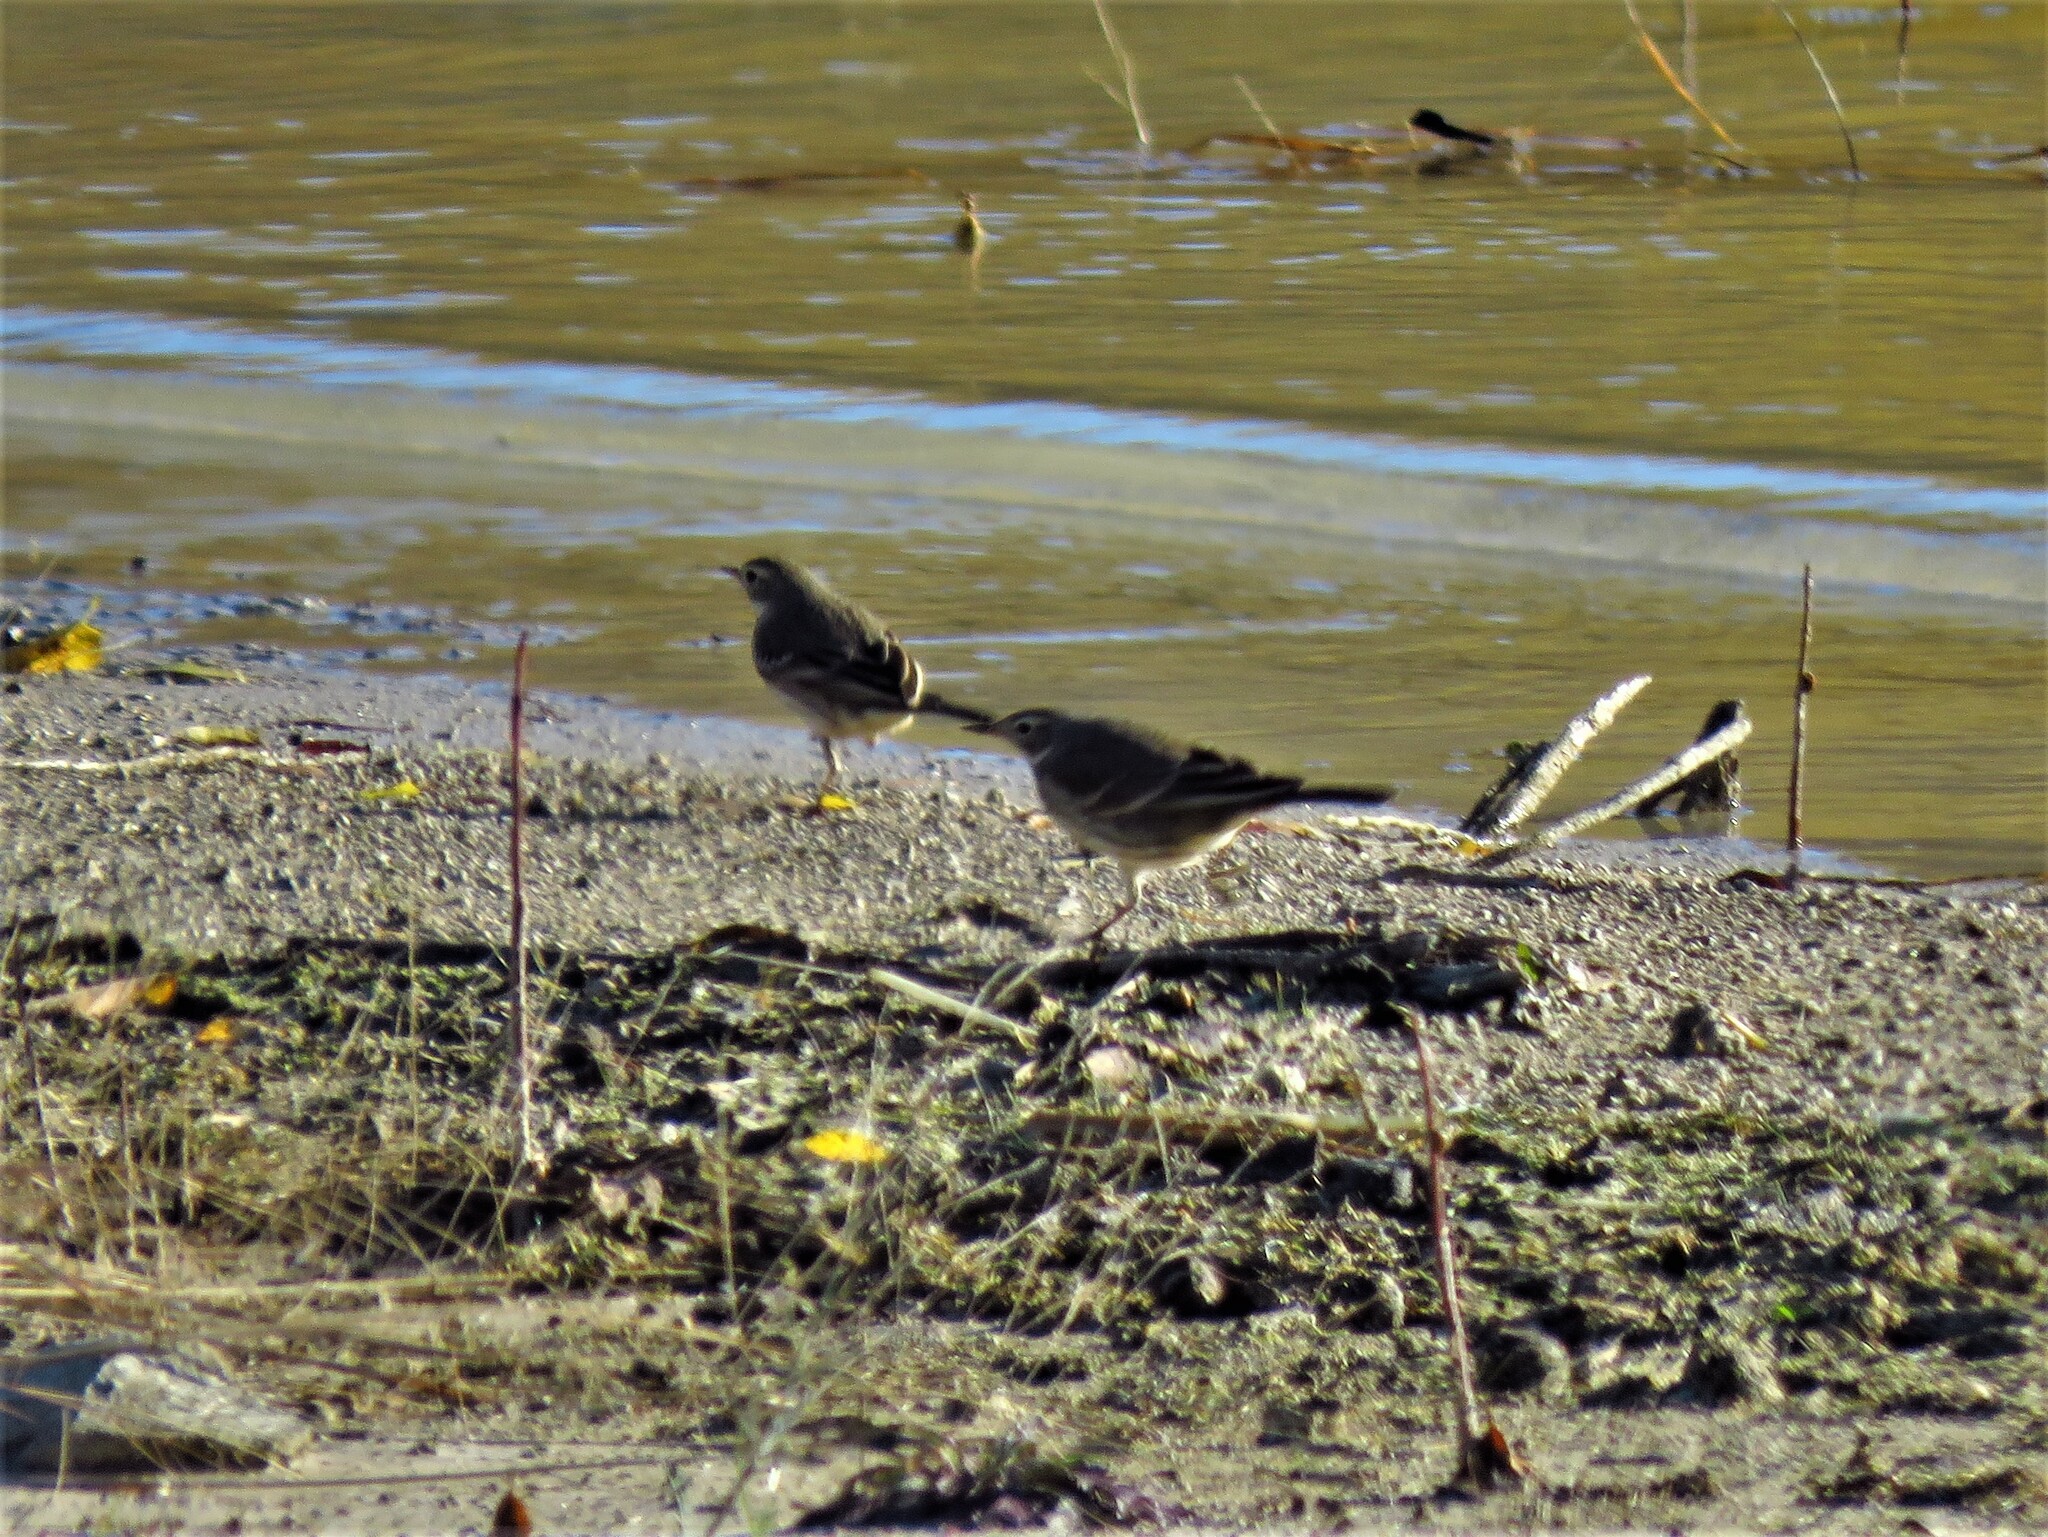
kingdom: Animalia
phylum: Chordata
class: Aves
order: Passeriformes
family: Motacillidae
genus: Anthus
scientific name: Anthus rubescens
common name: Buff-bellied pipit
